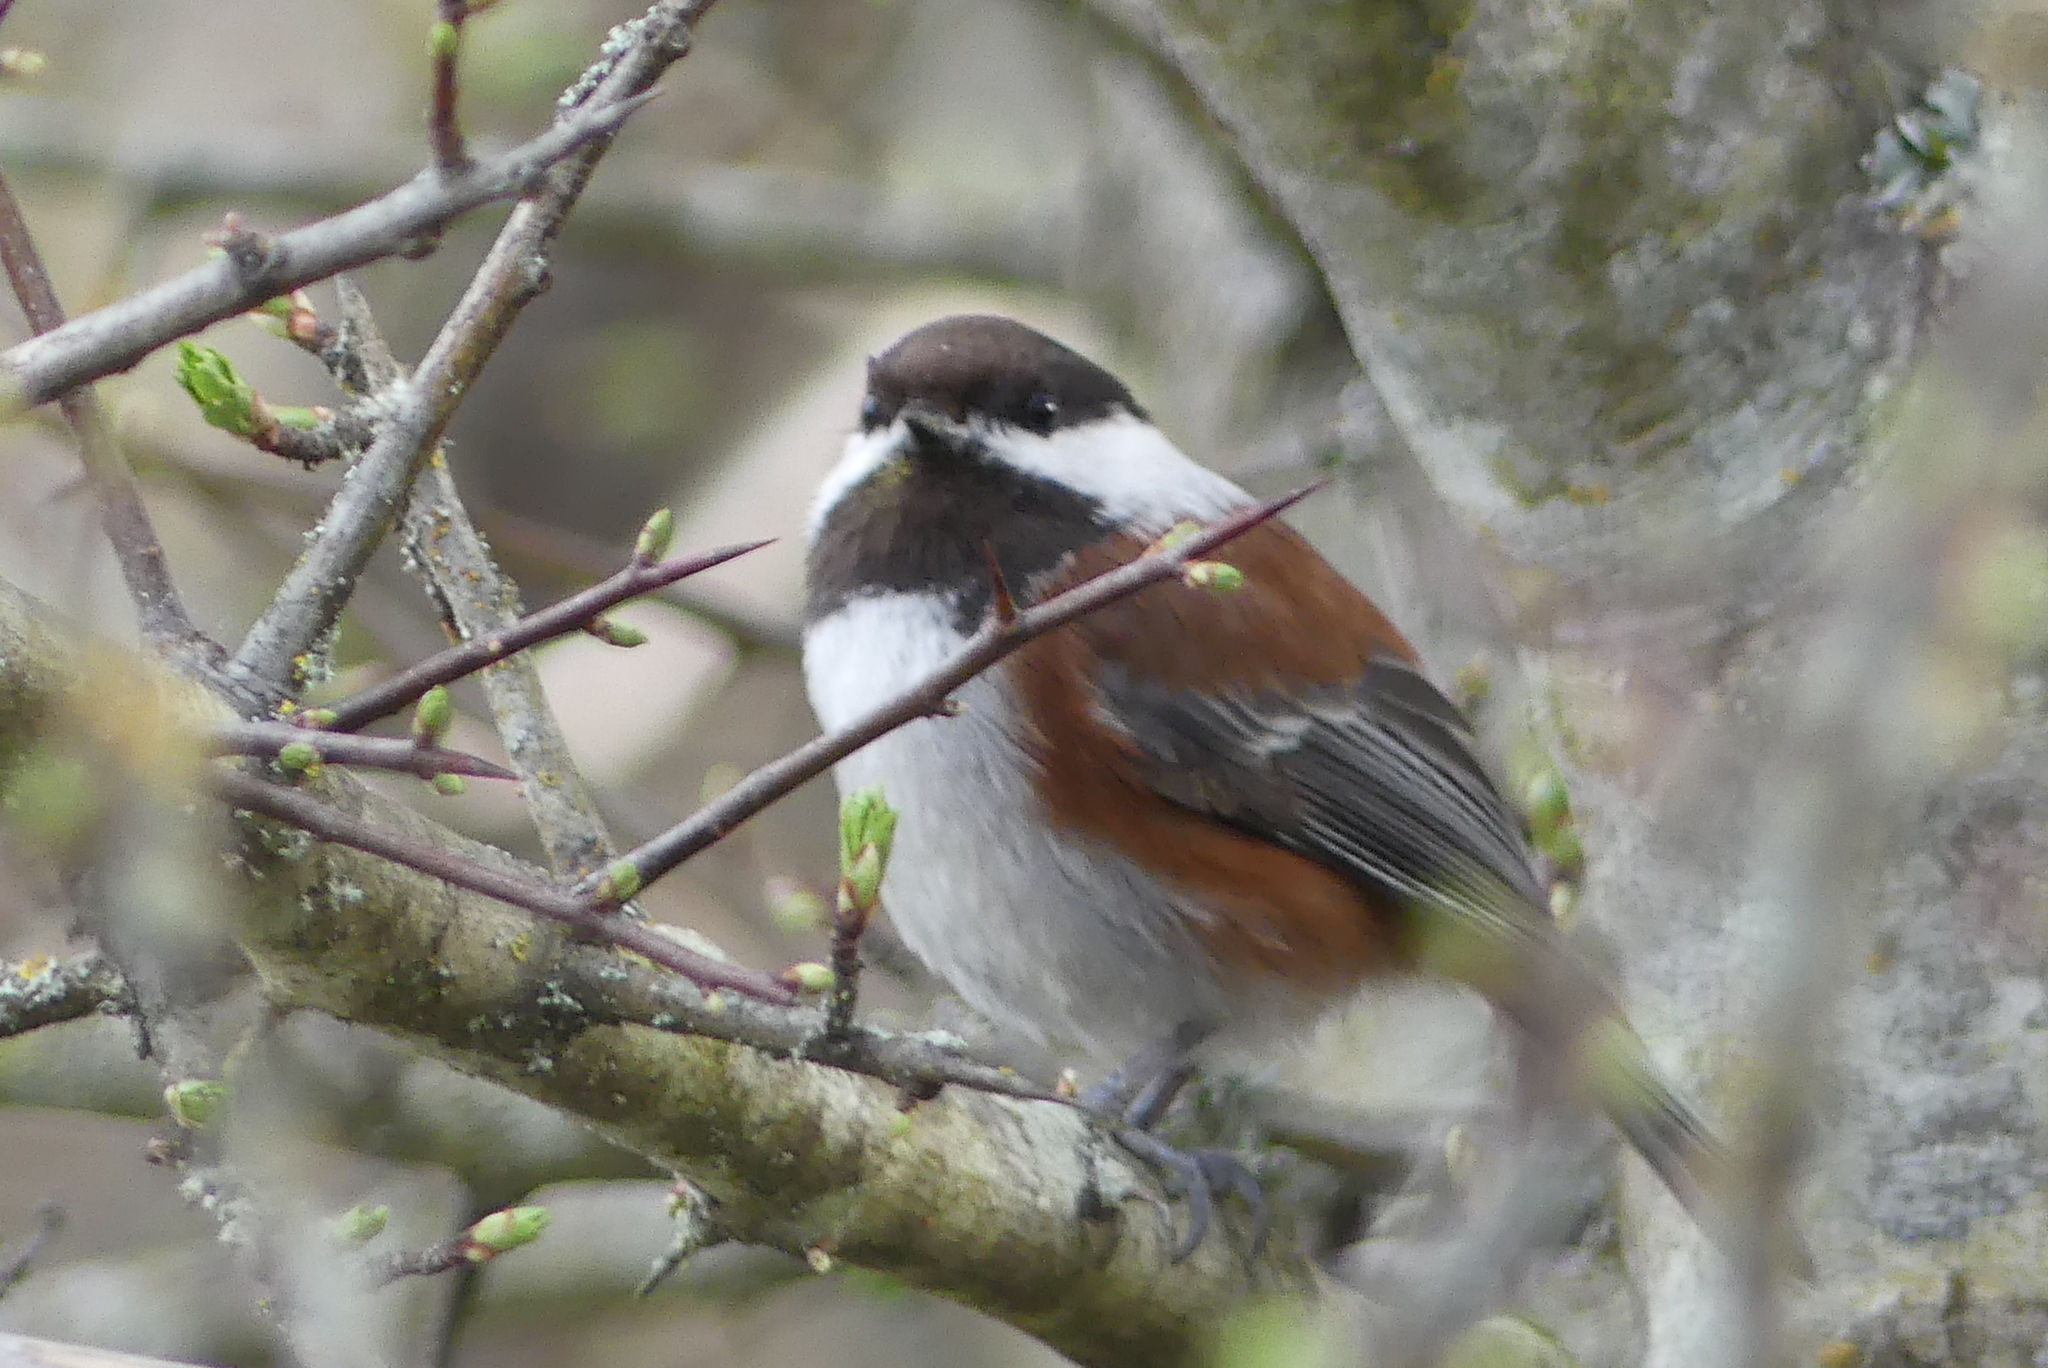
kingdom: Animalia
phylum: Chordata
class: Aves
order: Passeriformes
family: Paridae
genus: Poecile
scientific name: Poecile rufescens
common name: Chestnut-backed chickadee
